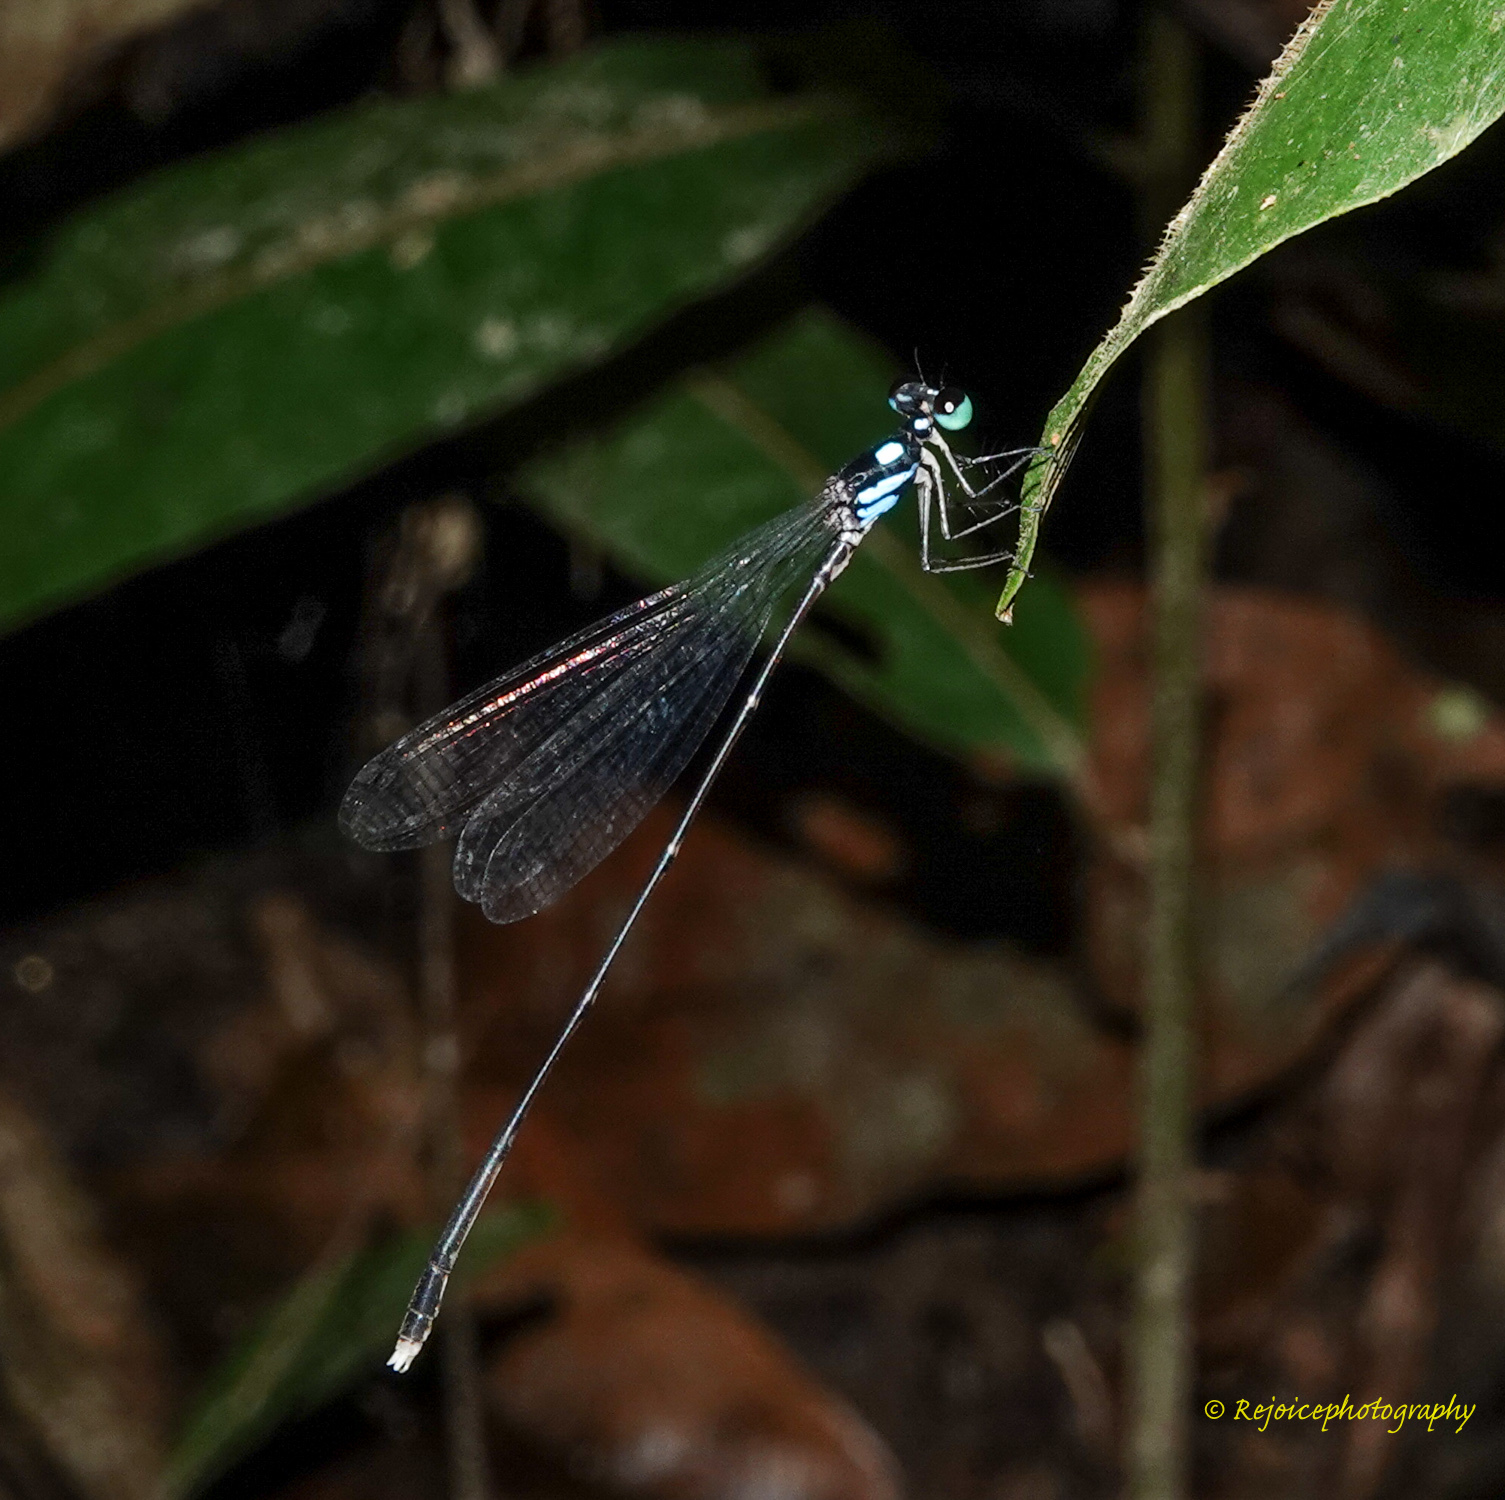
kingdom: Animalia
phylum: Arthropoda
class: Insecta
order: Odonata
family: Platycnemididae
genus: Coeliccia
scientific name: Coeliccia bimaculata
